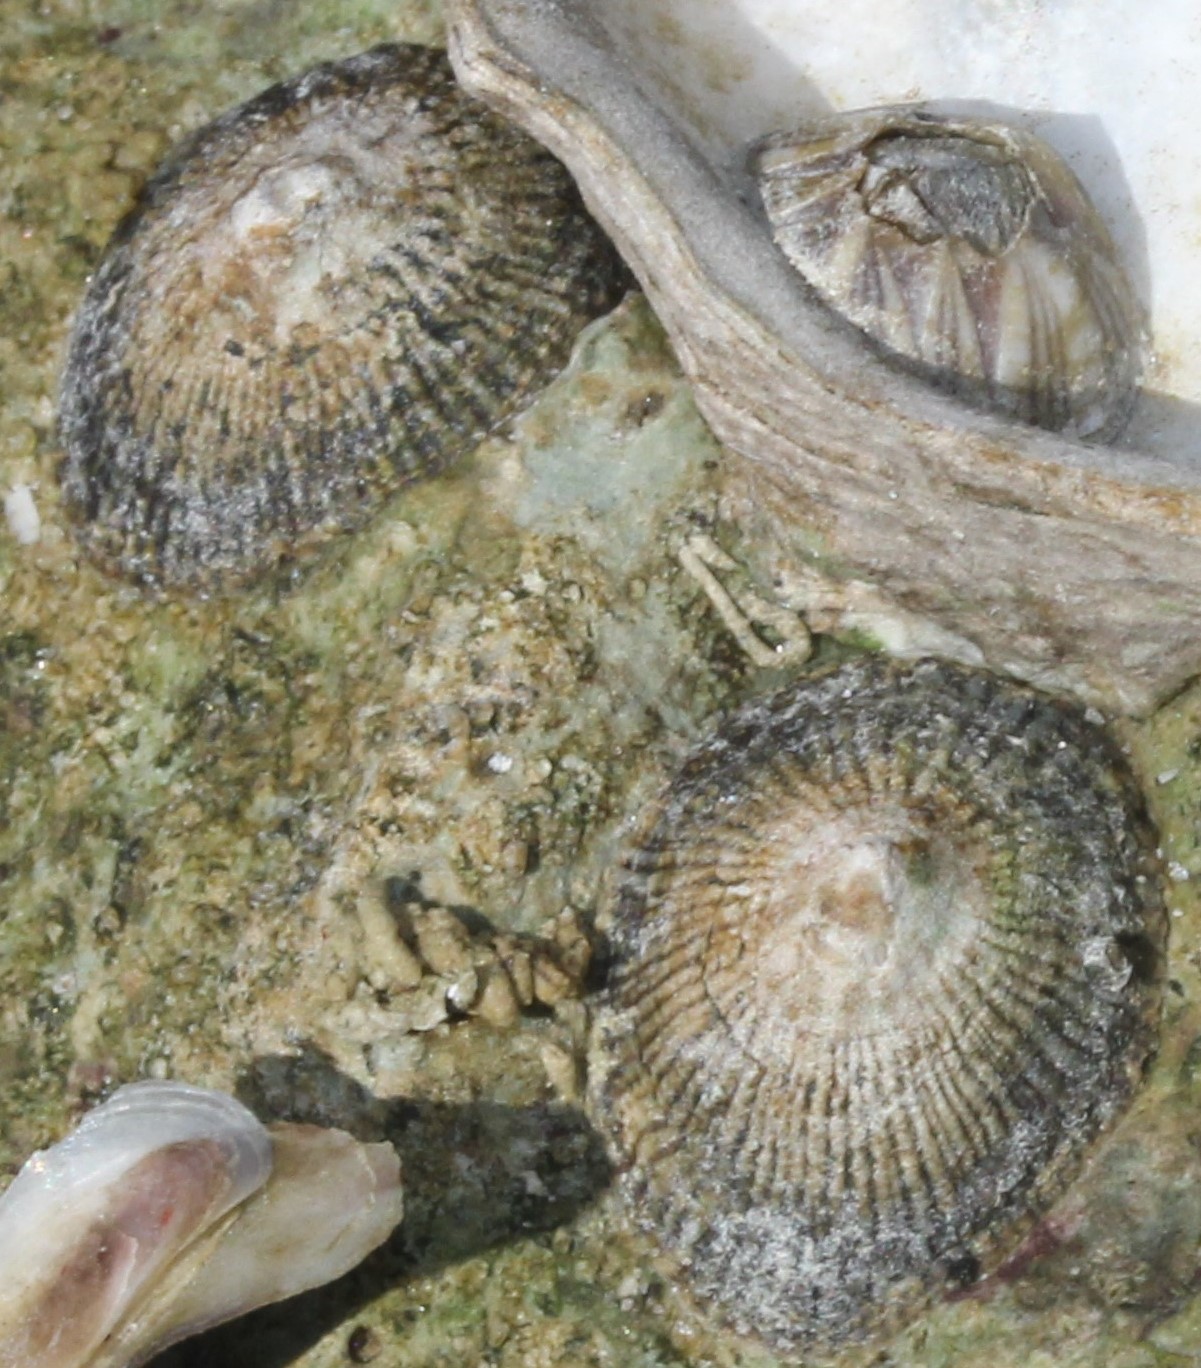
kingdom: Animalia
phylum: Mollusca
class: Gastropoda
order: Siphonariida
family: Siphonariidae
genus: Siphonaria
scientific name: Siphonaria naufragum
